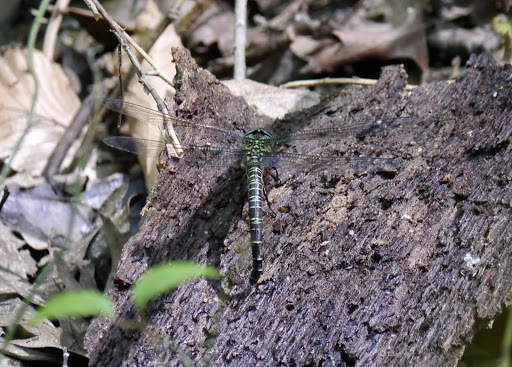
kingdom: Animalia
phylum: Arthropoda
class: Insecta
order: Odonata
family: Aeshnidae
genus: Epiaeschna
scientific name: Epiaeschna heros
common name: Swamp darner
